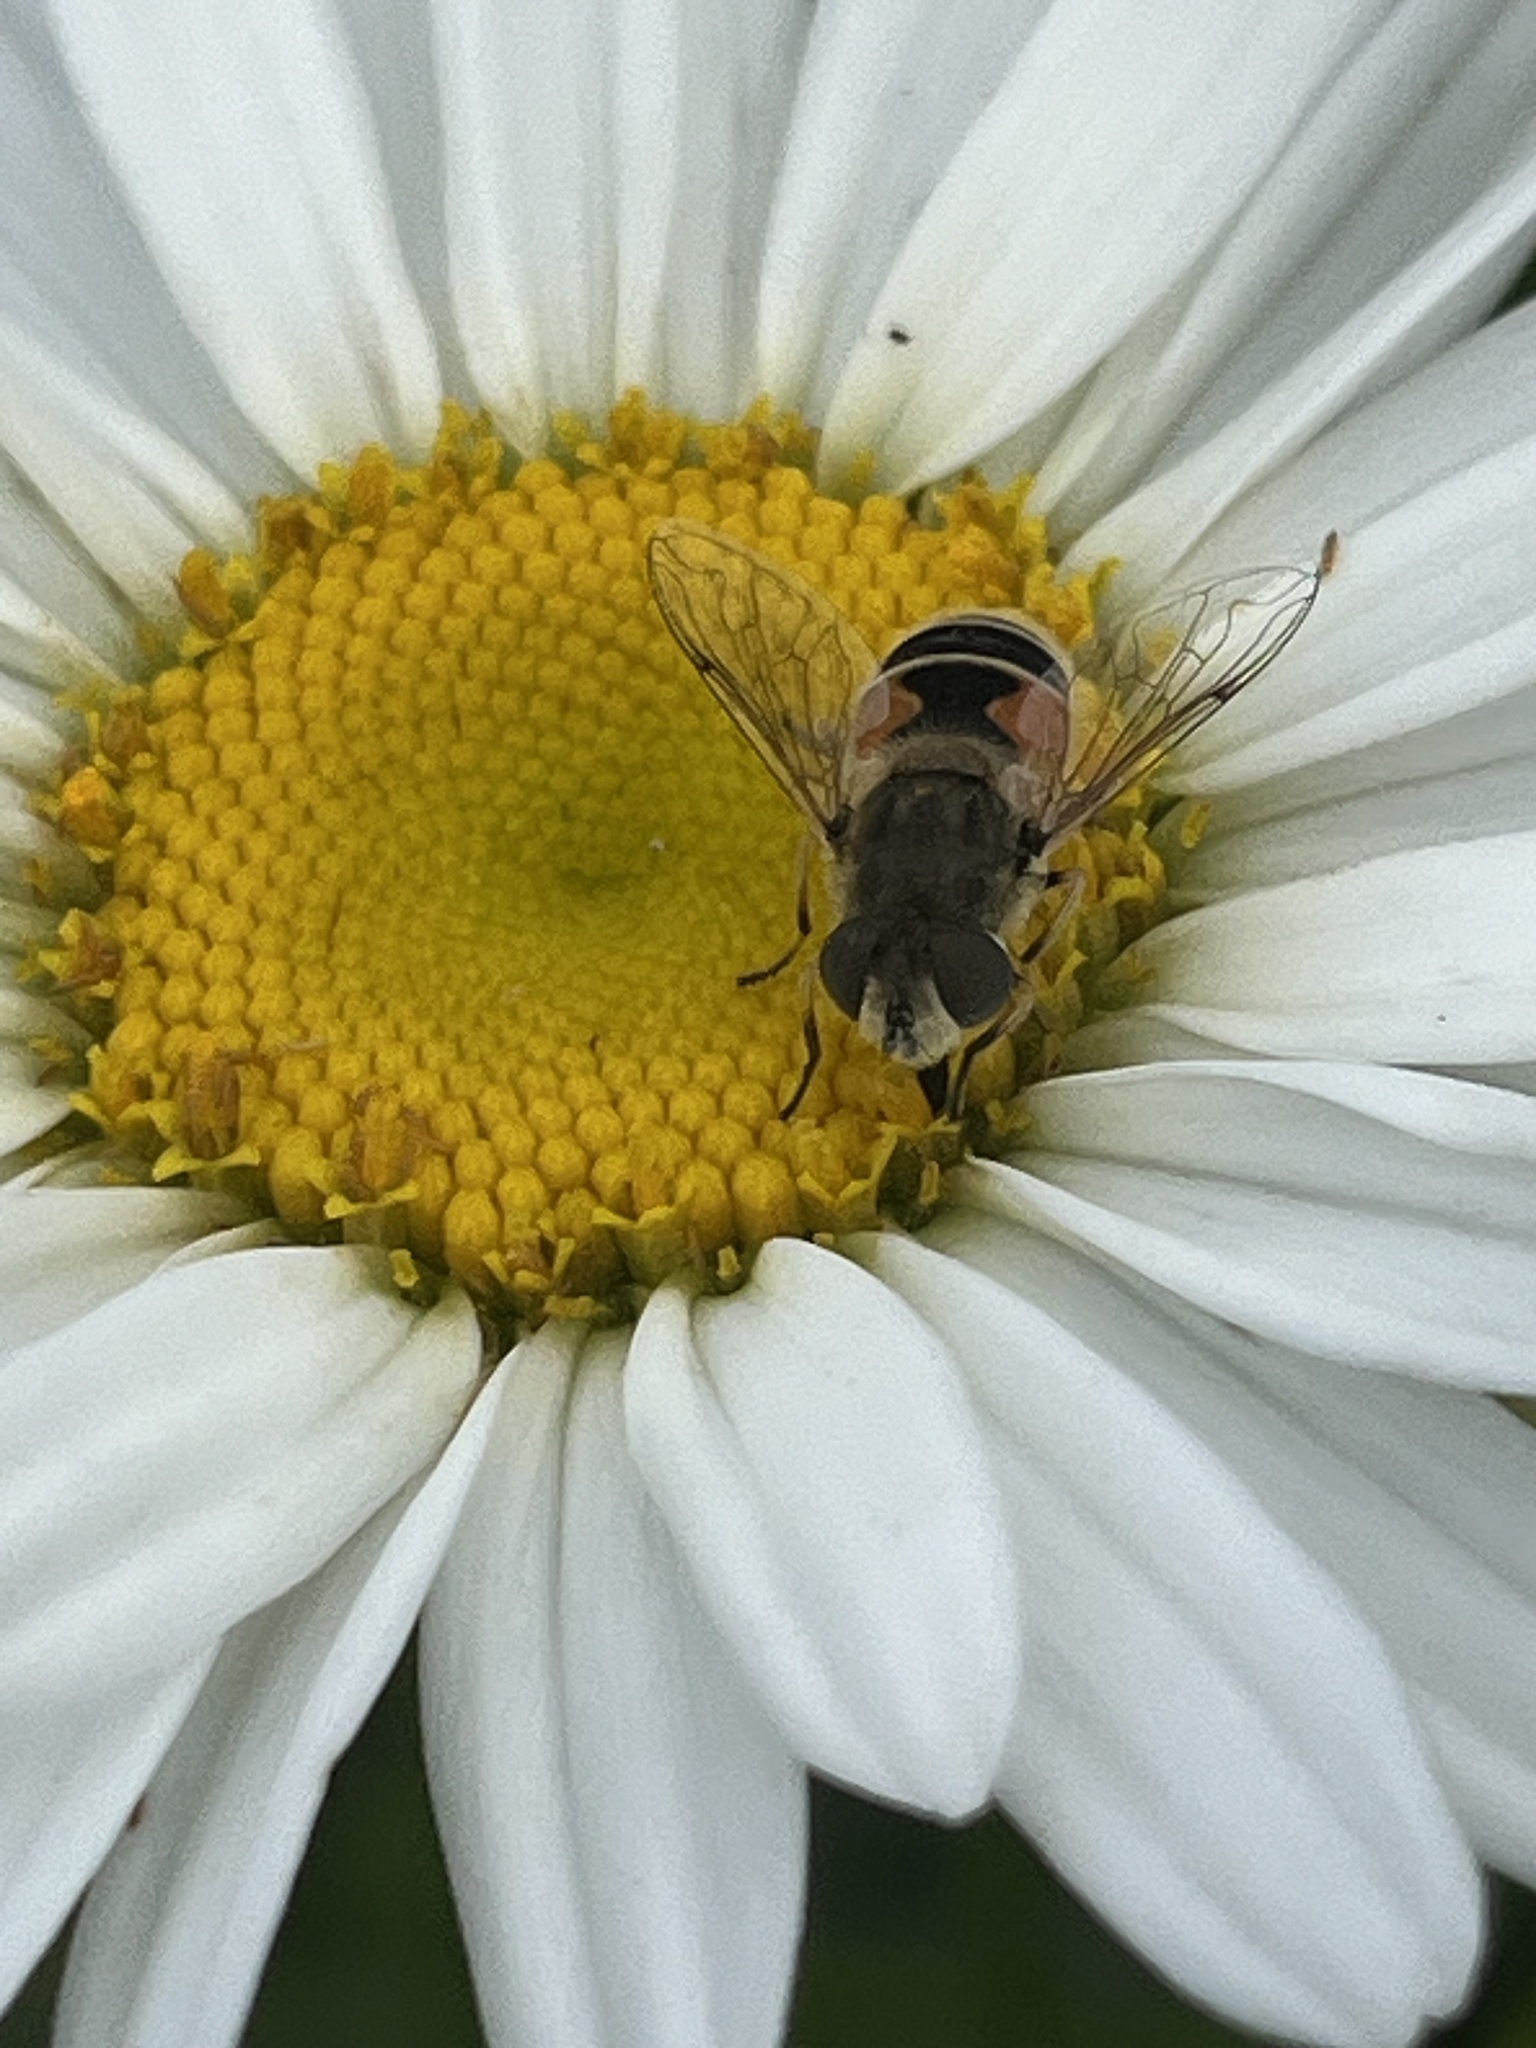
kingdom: Animalia
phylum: Arthropoda
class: Insecta
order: Diptera
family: Syrphidae
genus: Eristalis
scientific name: Eristalis arbustorum
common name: Hover fly
